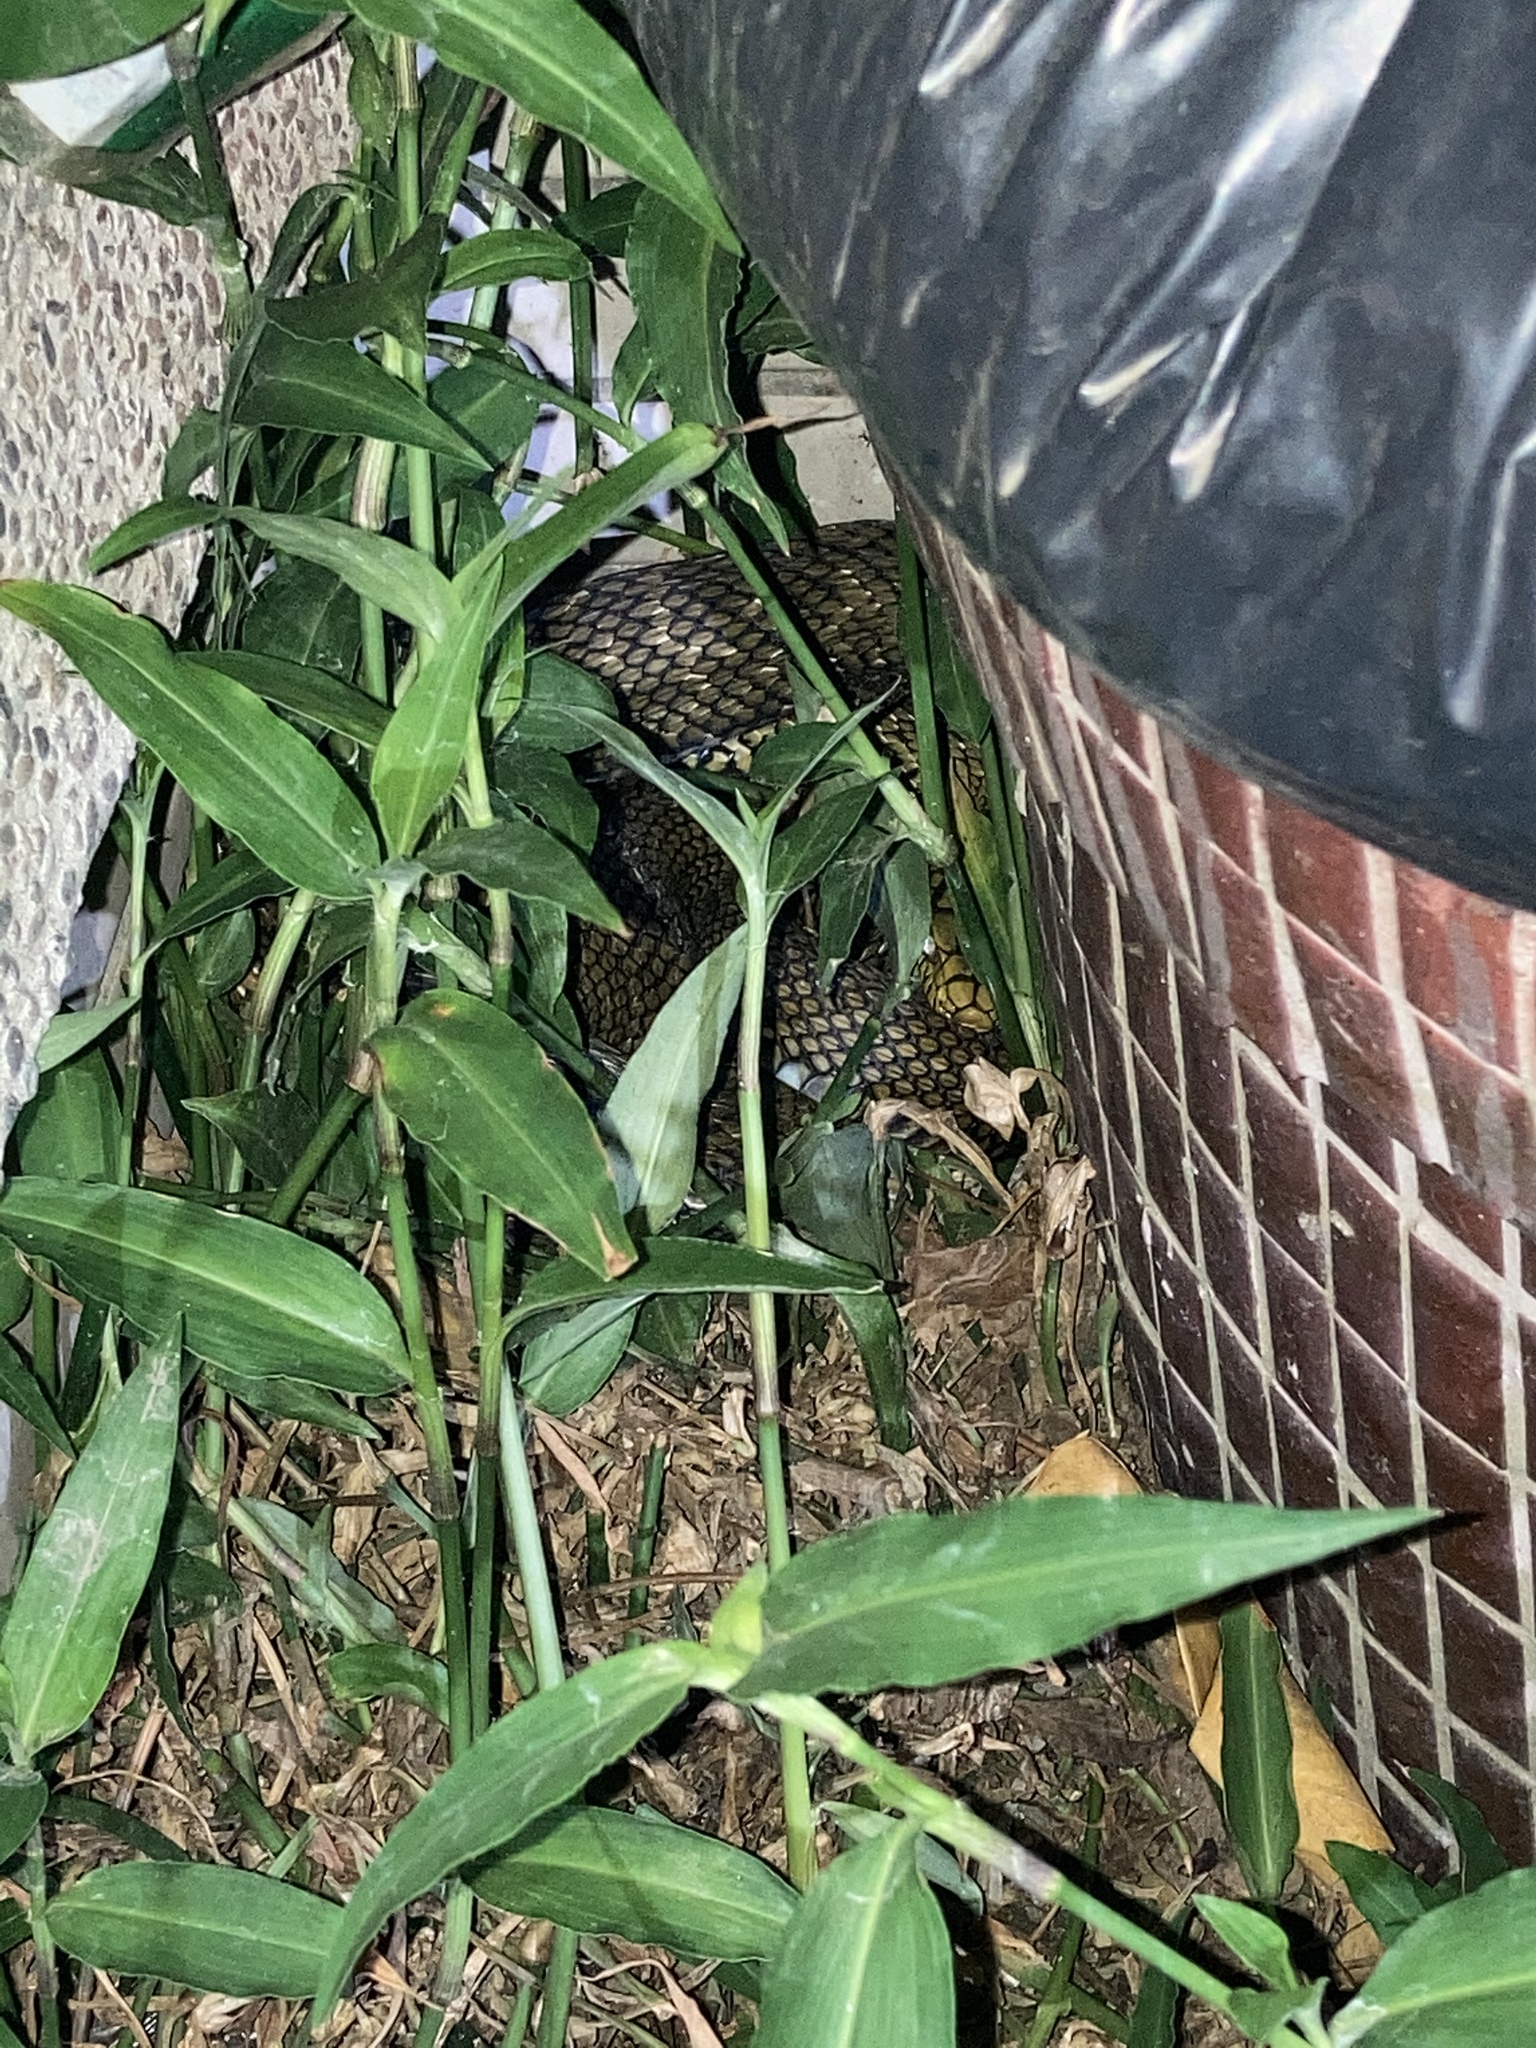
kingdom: Animalia
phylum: Chordata
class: Squamata
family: Colubridae
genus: Elaphe
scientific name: Elaphe carinata
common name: Taiwan stink snake
